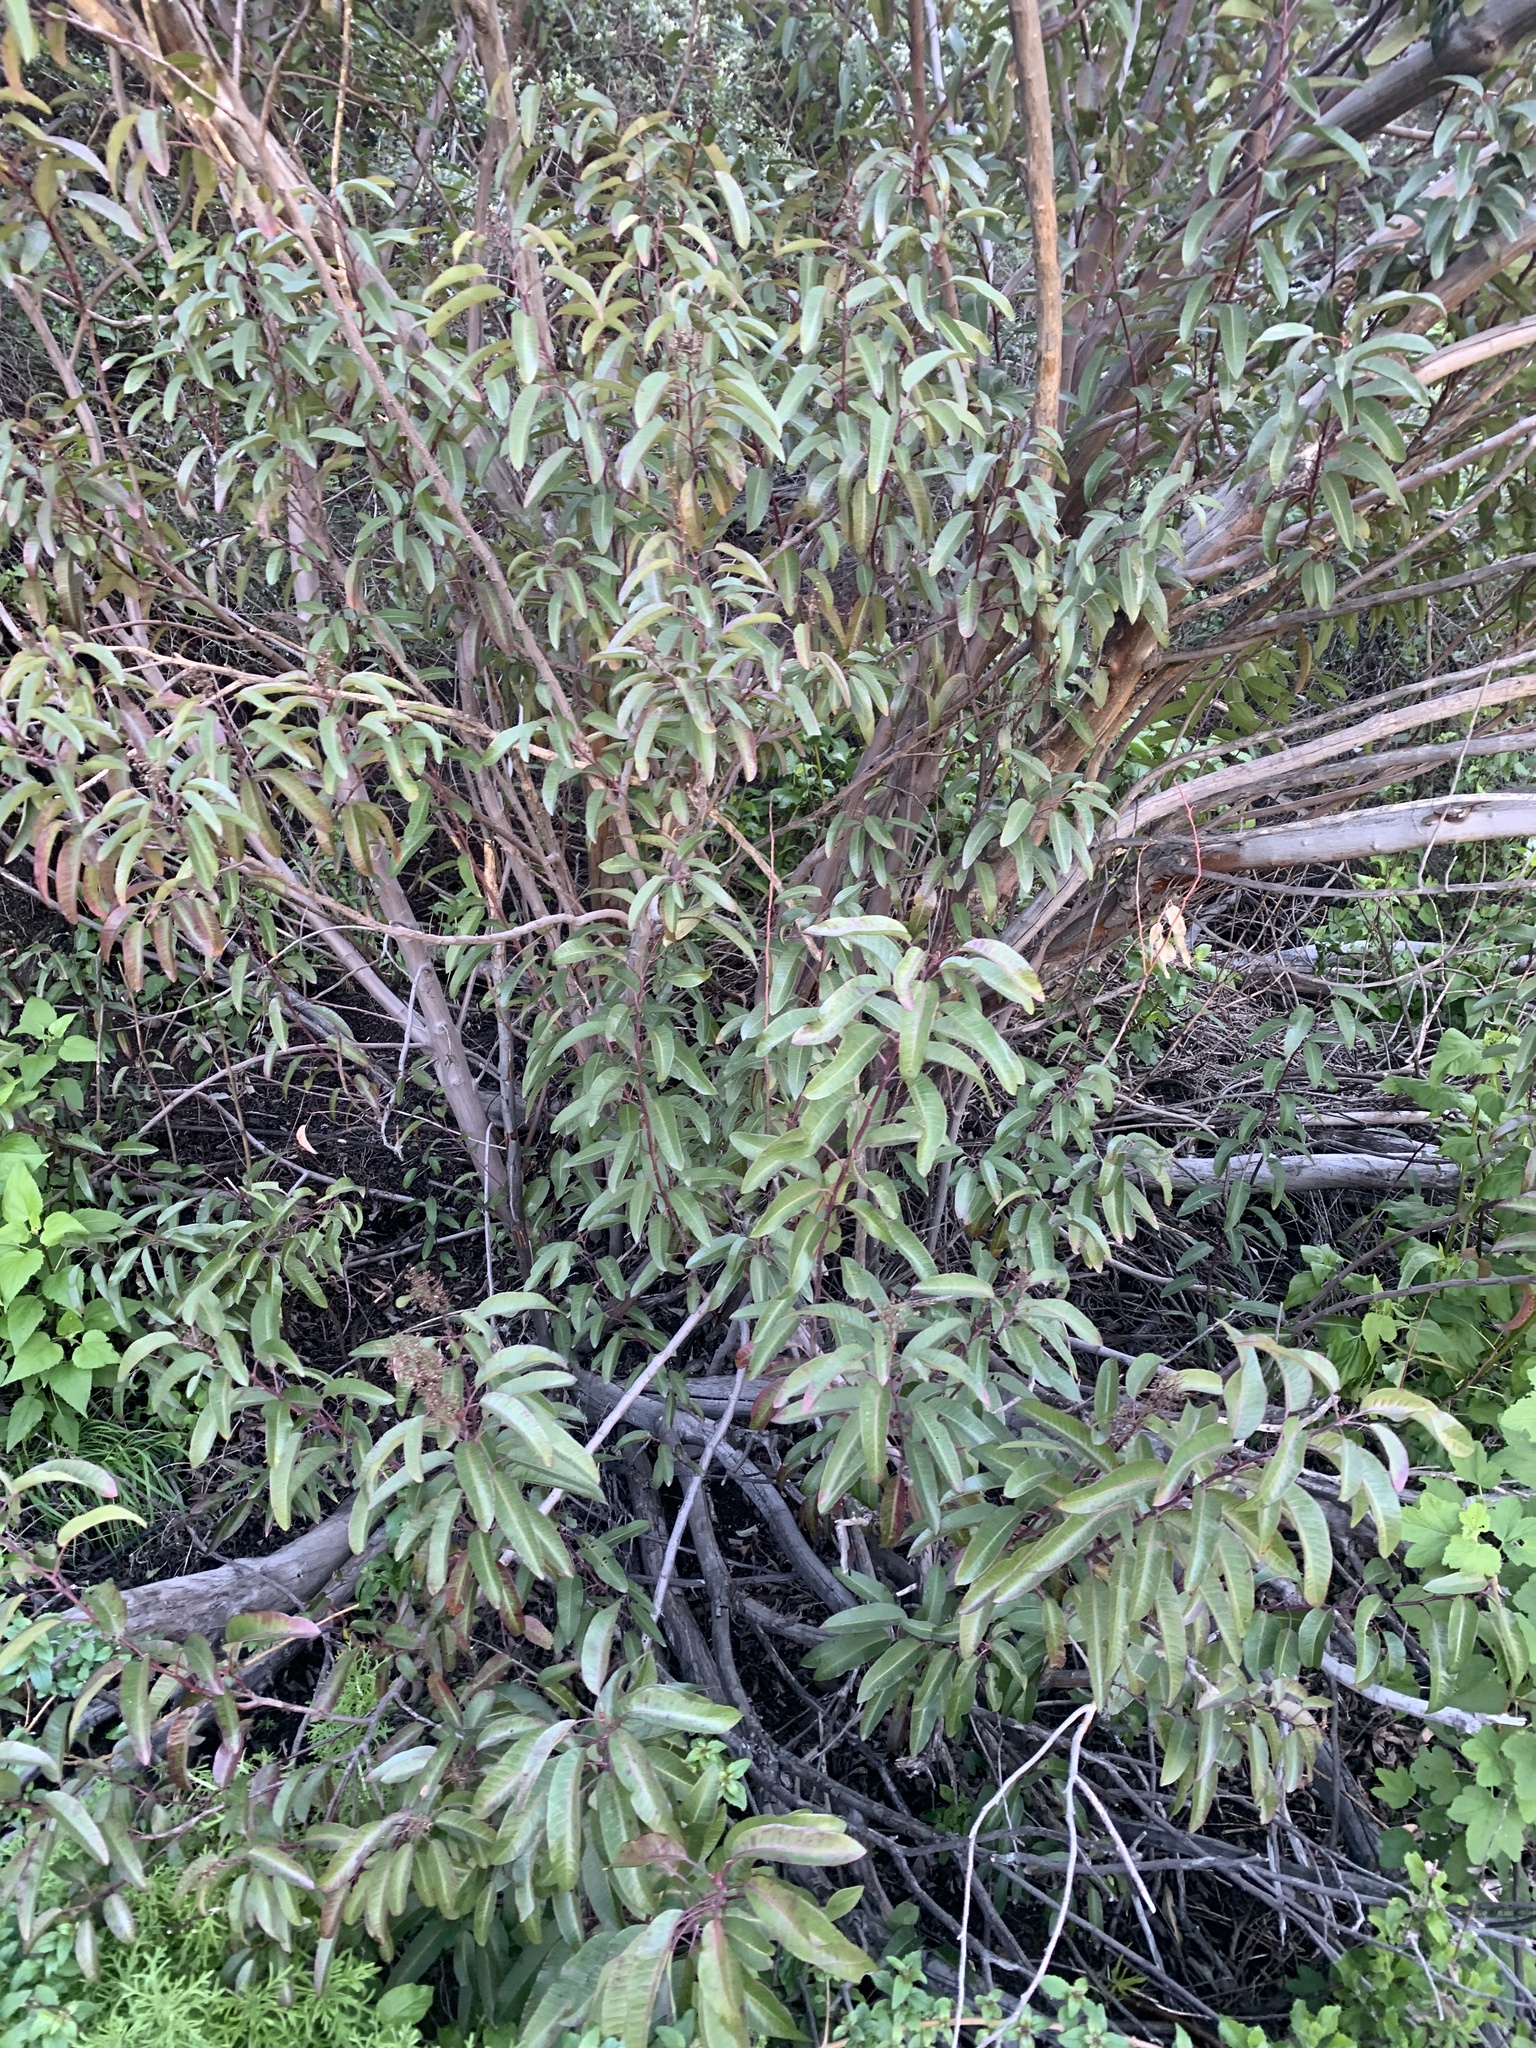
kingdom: Plantae
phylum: Tracheophyta
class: Magnoliopsida
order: Sapindales
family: Anacardiaceae
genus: Malosma
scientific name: Malosma laurina
